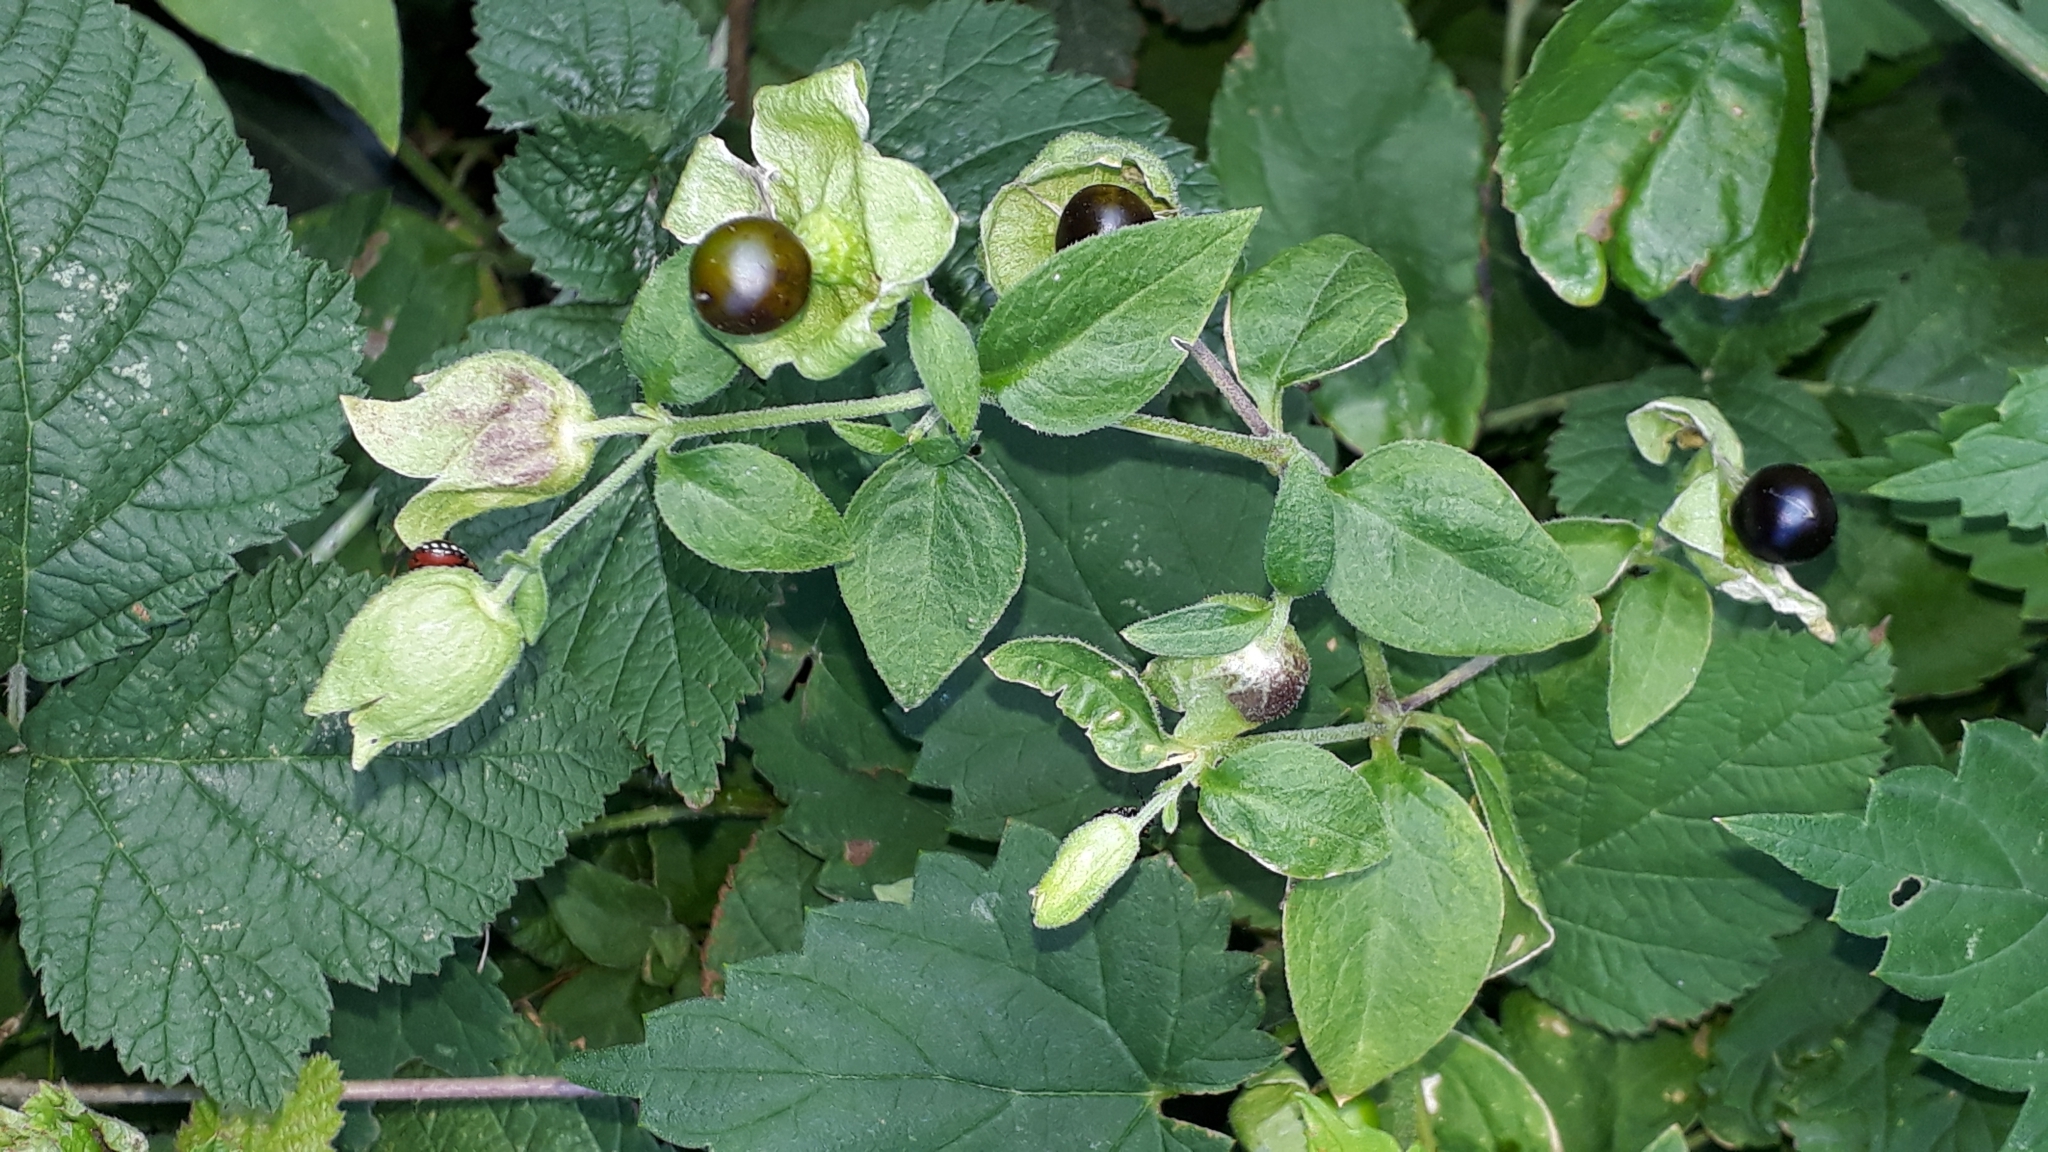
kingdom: Plantae
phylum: Tracheophyta
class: Magnoliopsida
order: Caryophyllales
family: Caryophyllaceae
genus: Silene
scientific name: Silene baccifera
